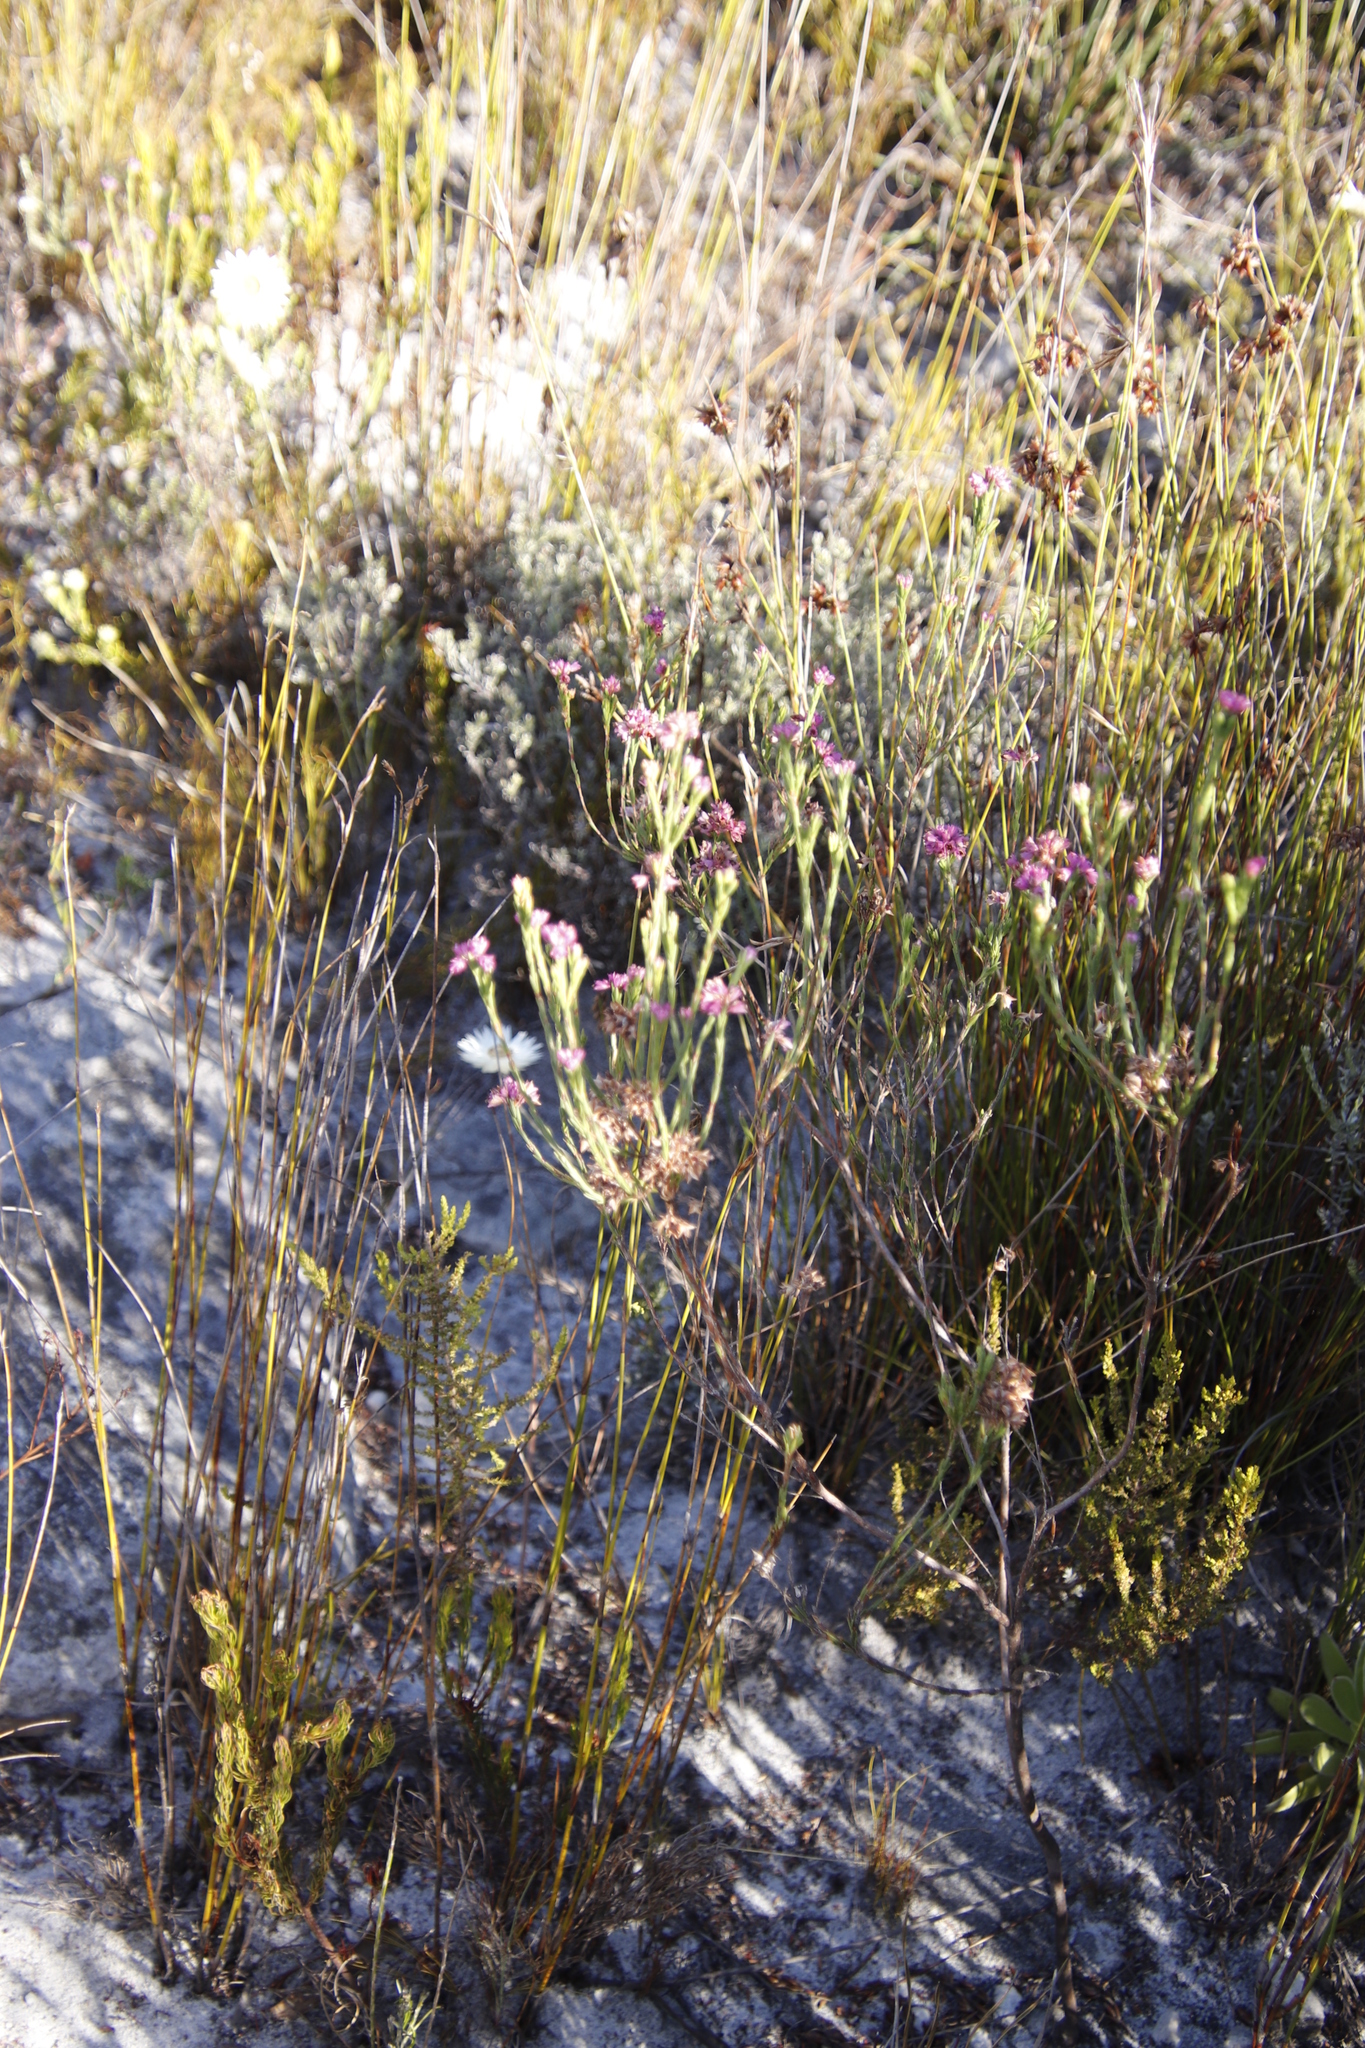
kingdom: Plantae
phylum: Tracheophyta
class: Magnoliopsida
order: Ericales
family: Ericaceae
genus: Erica
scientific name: Erica corifolia
